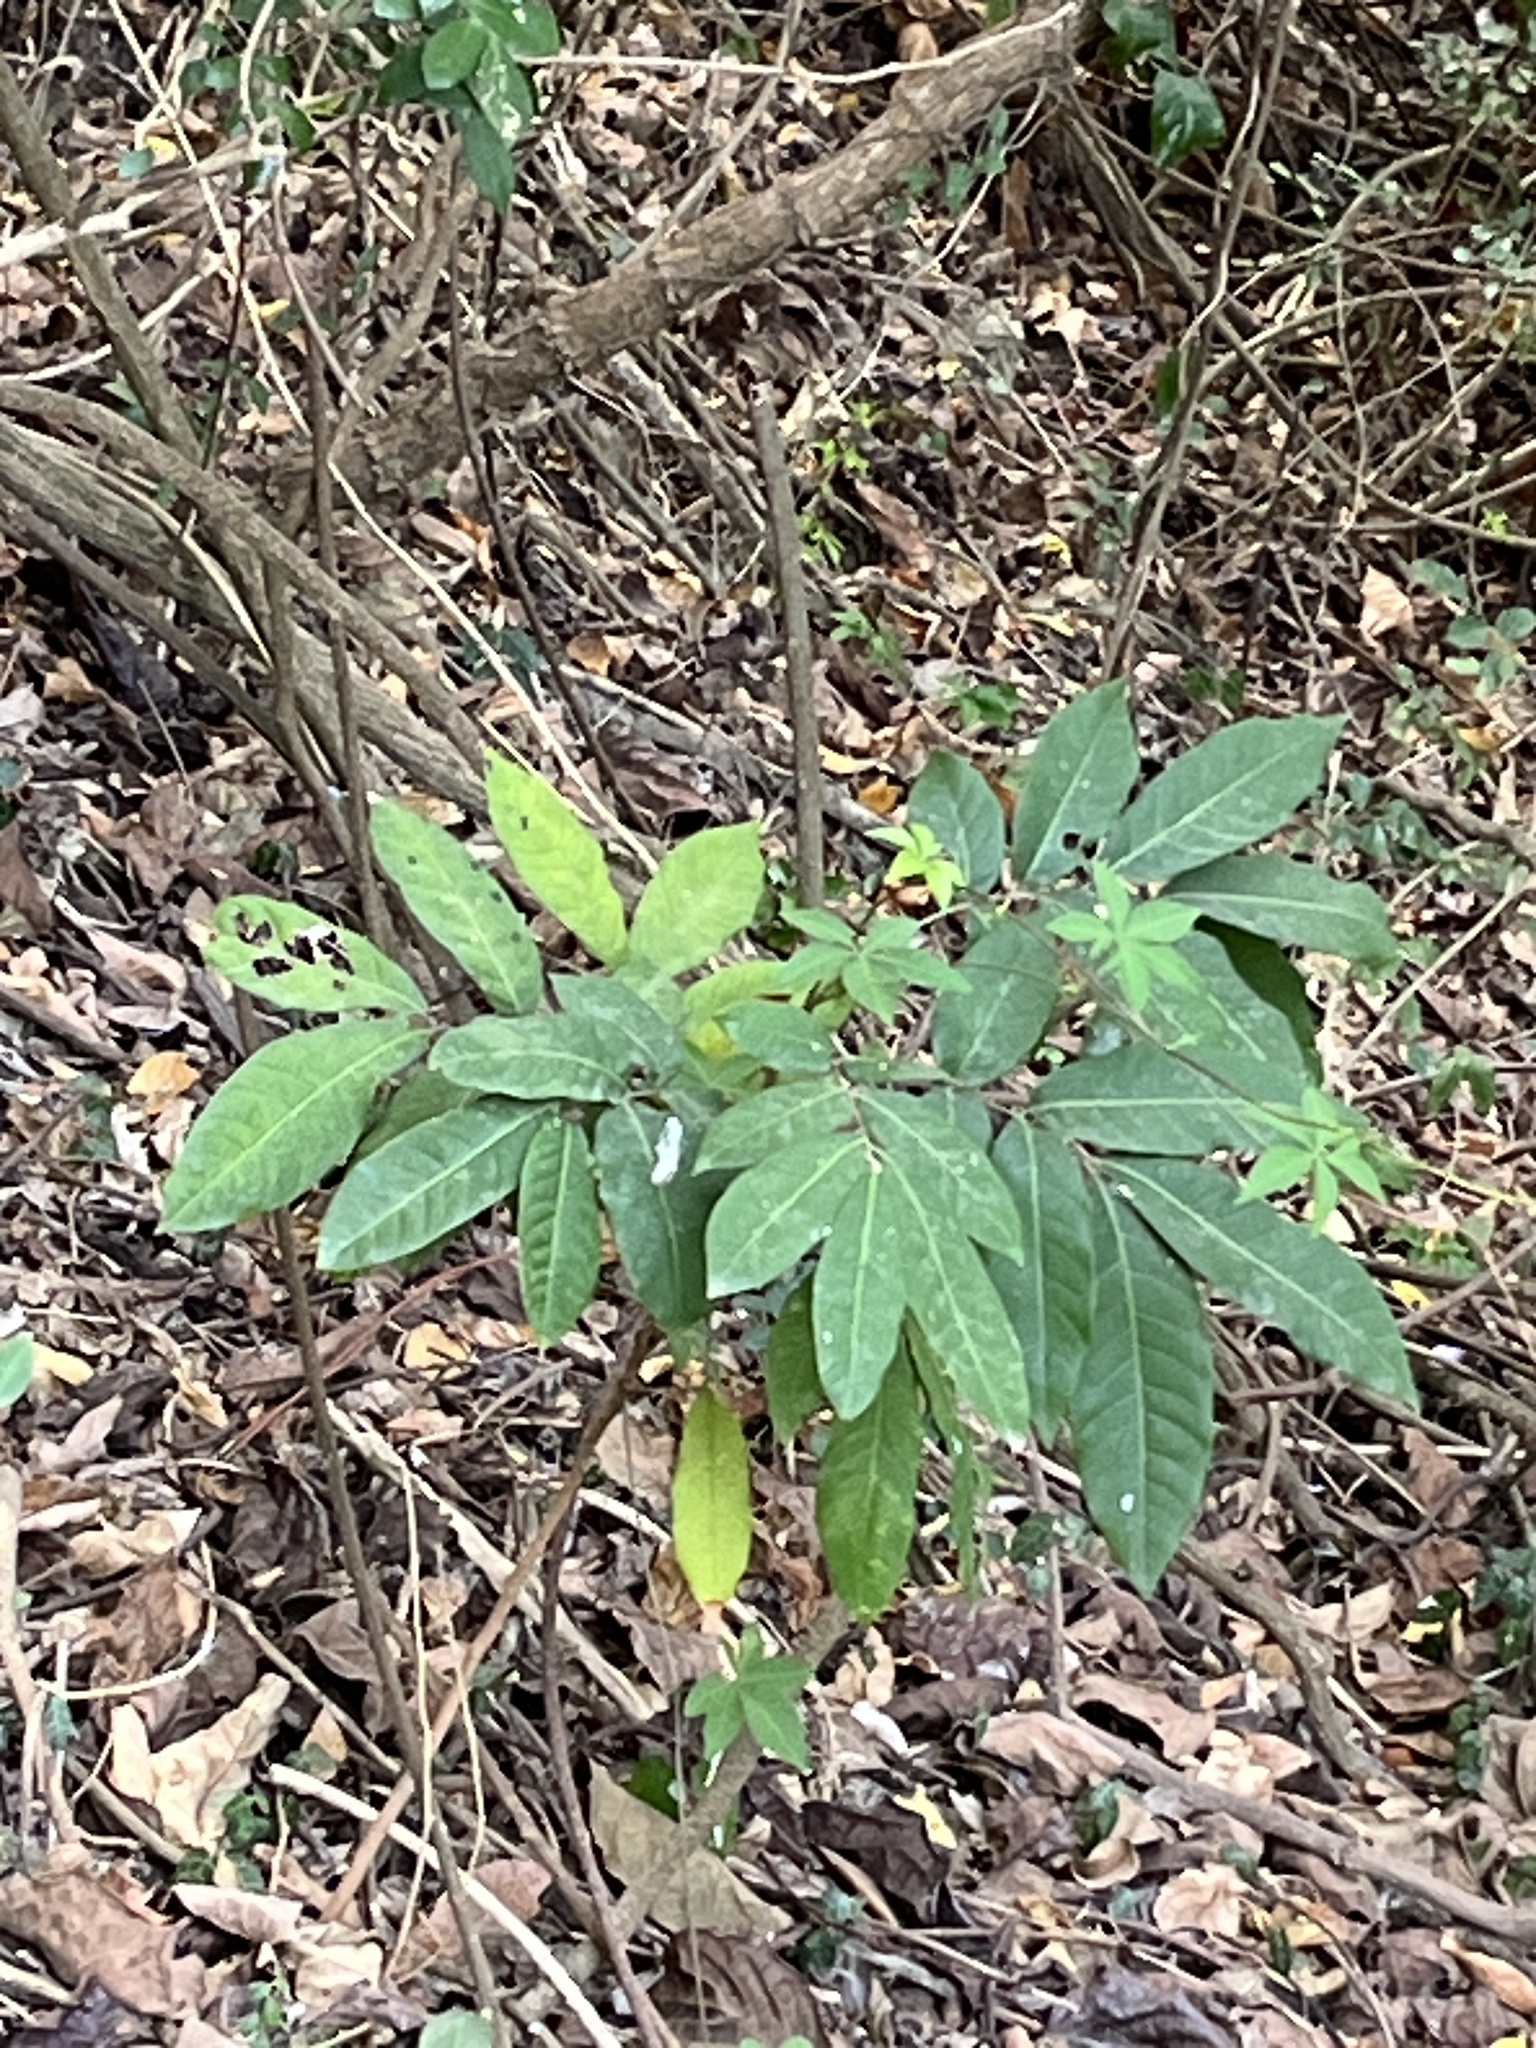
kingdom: Plantae
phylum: Tracheophyta
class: Magnoliopsida
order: Sapindales
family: Sapindaceae
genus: Dimocarpus
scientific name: Dimocarpus longan
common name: Longan
